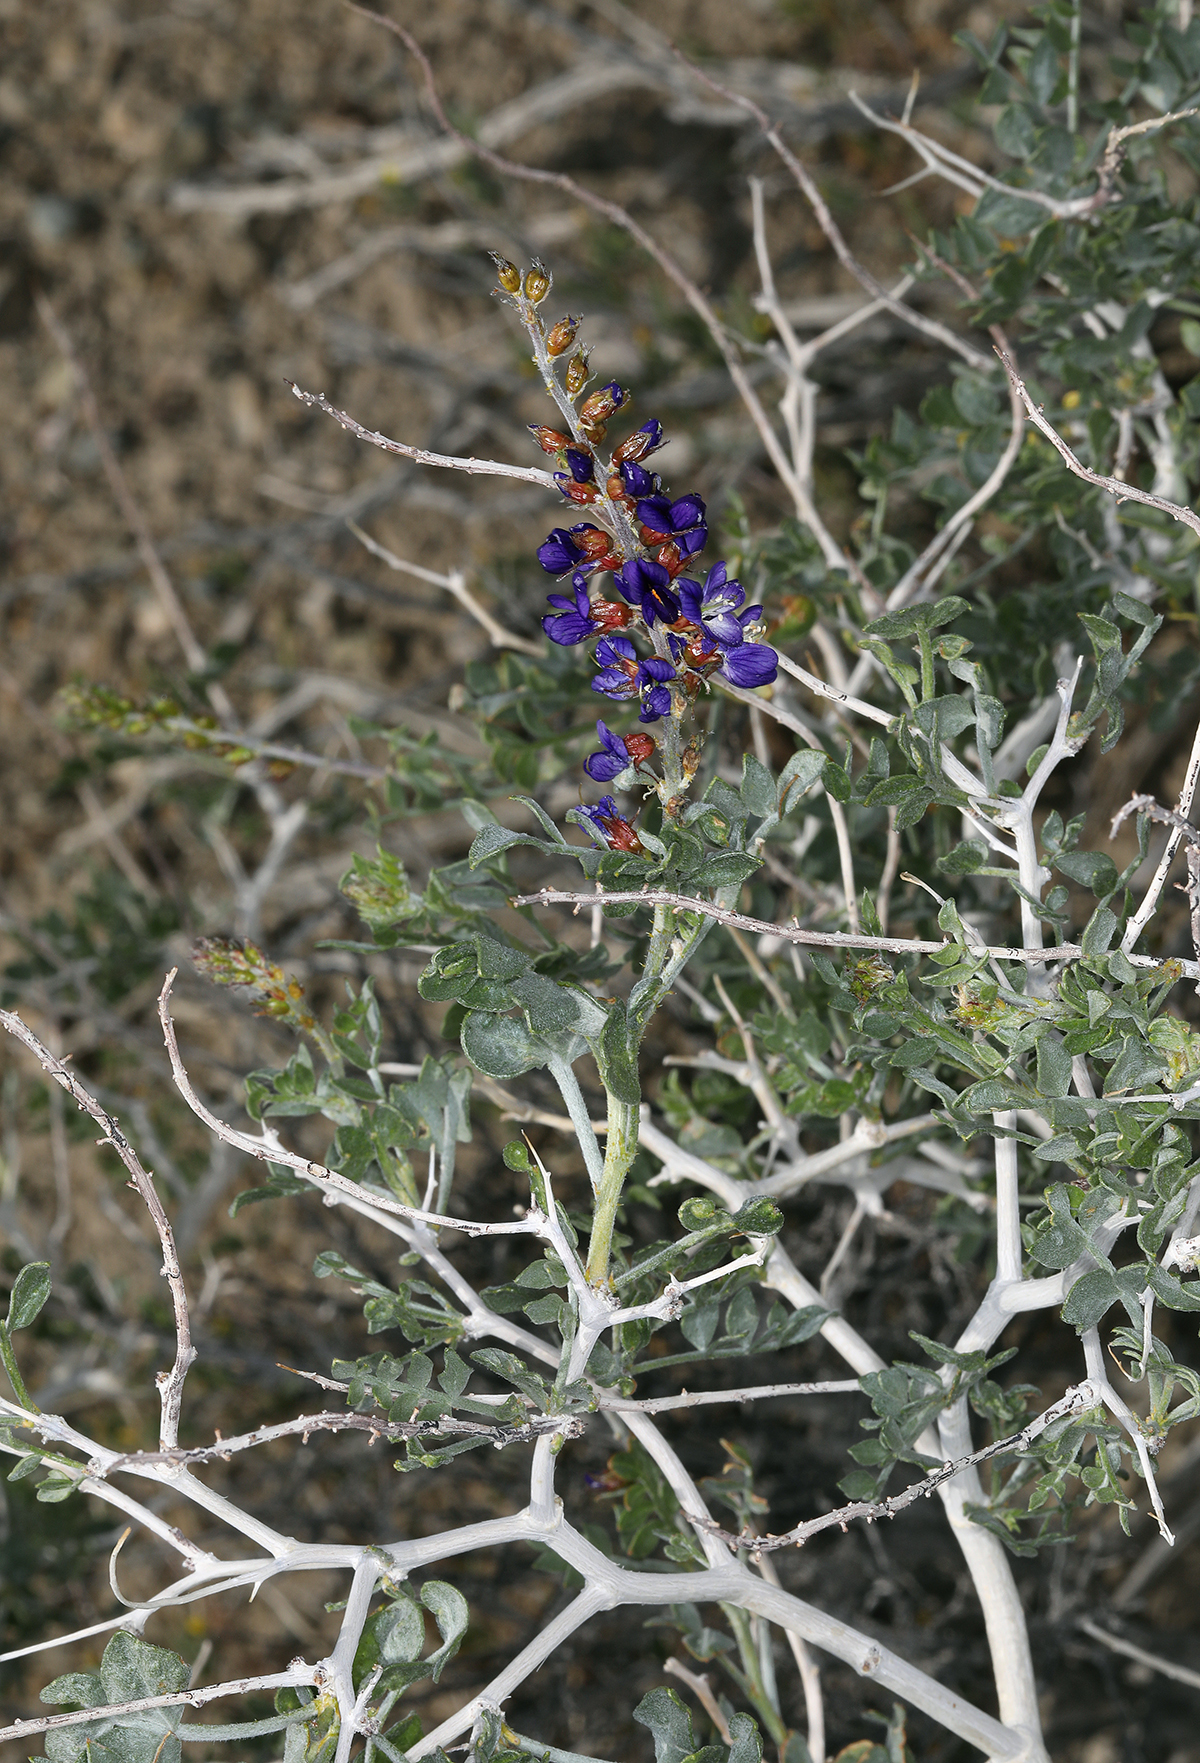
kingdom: Plantae
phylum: Tracheophyta
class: Magnoliopsida
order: Fabales
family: Fabaceae
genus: Psorothamnus
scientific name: Psorothamnus arborescens
